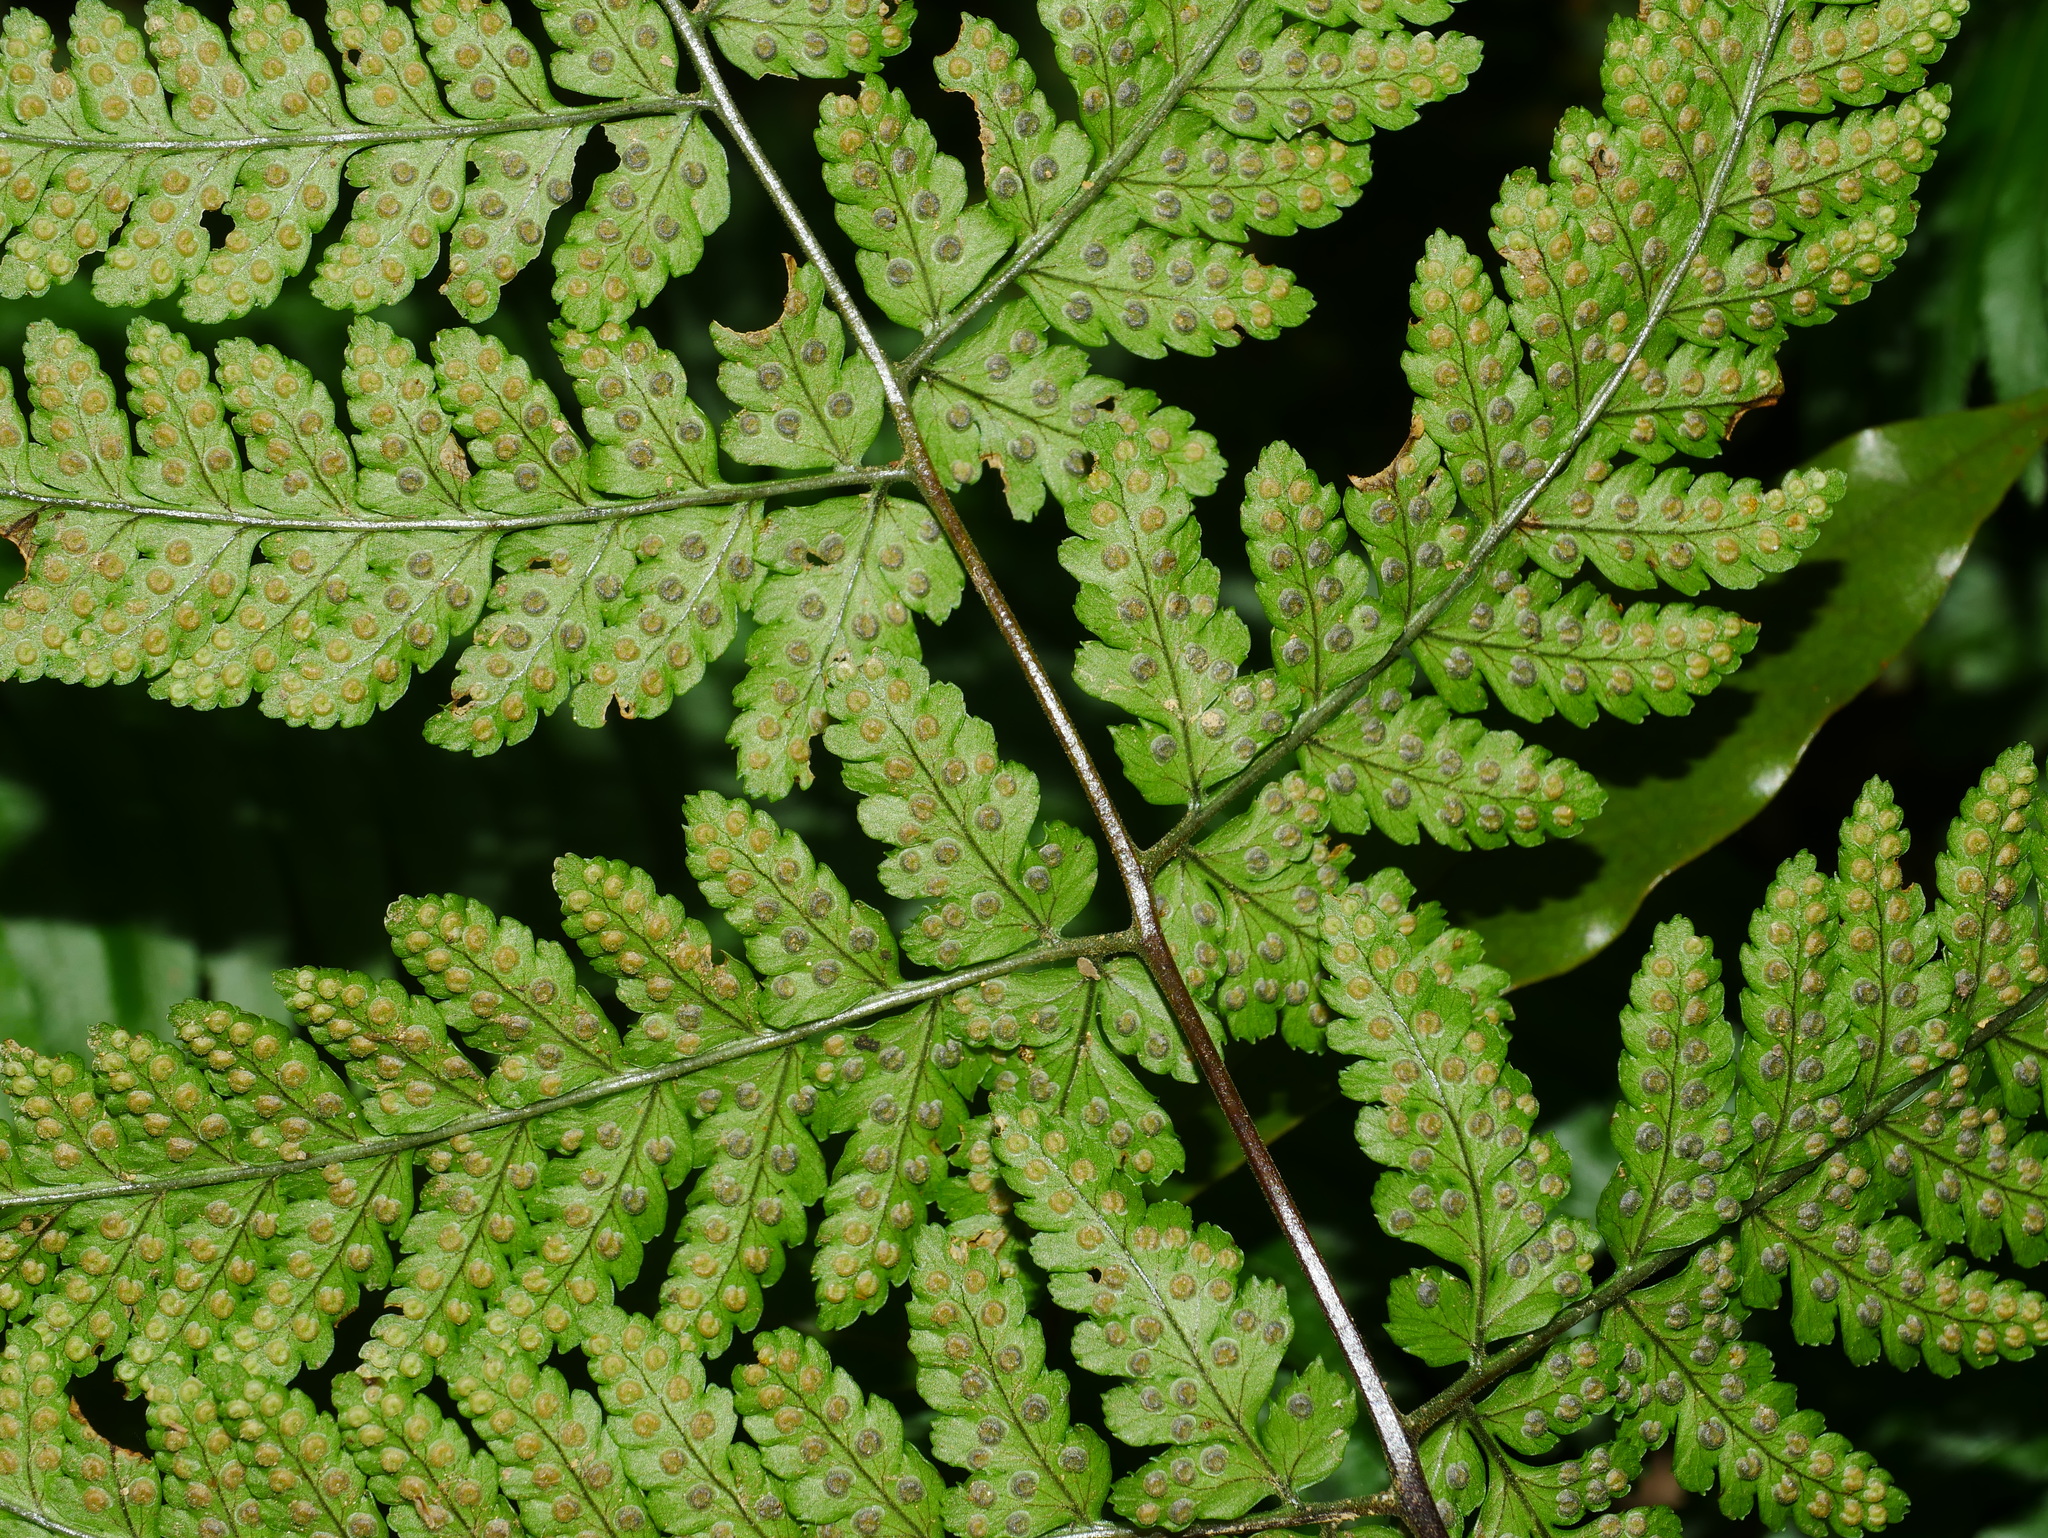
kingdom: Plantae
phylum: Tracheophyta
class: Polypodiopsida
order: Polypodiales
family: Dryopteridaceae
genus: Dryopteris
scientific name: Dryopteris melanocarpa
